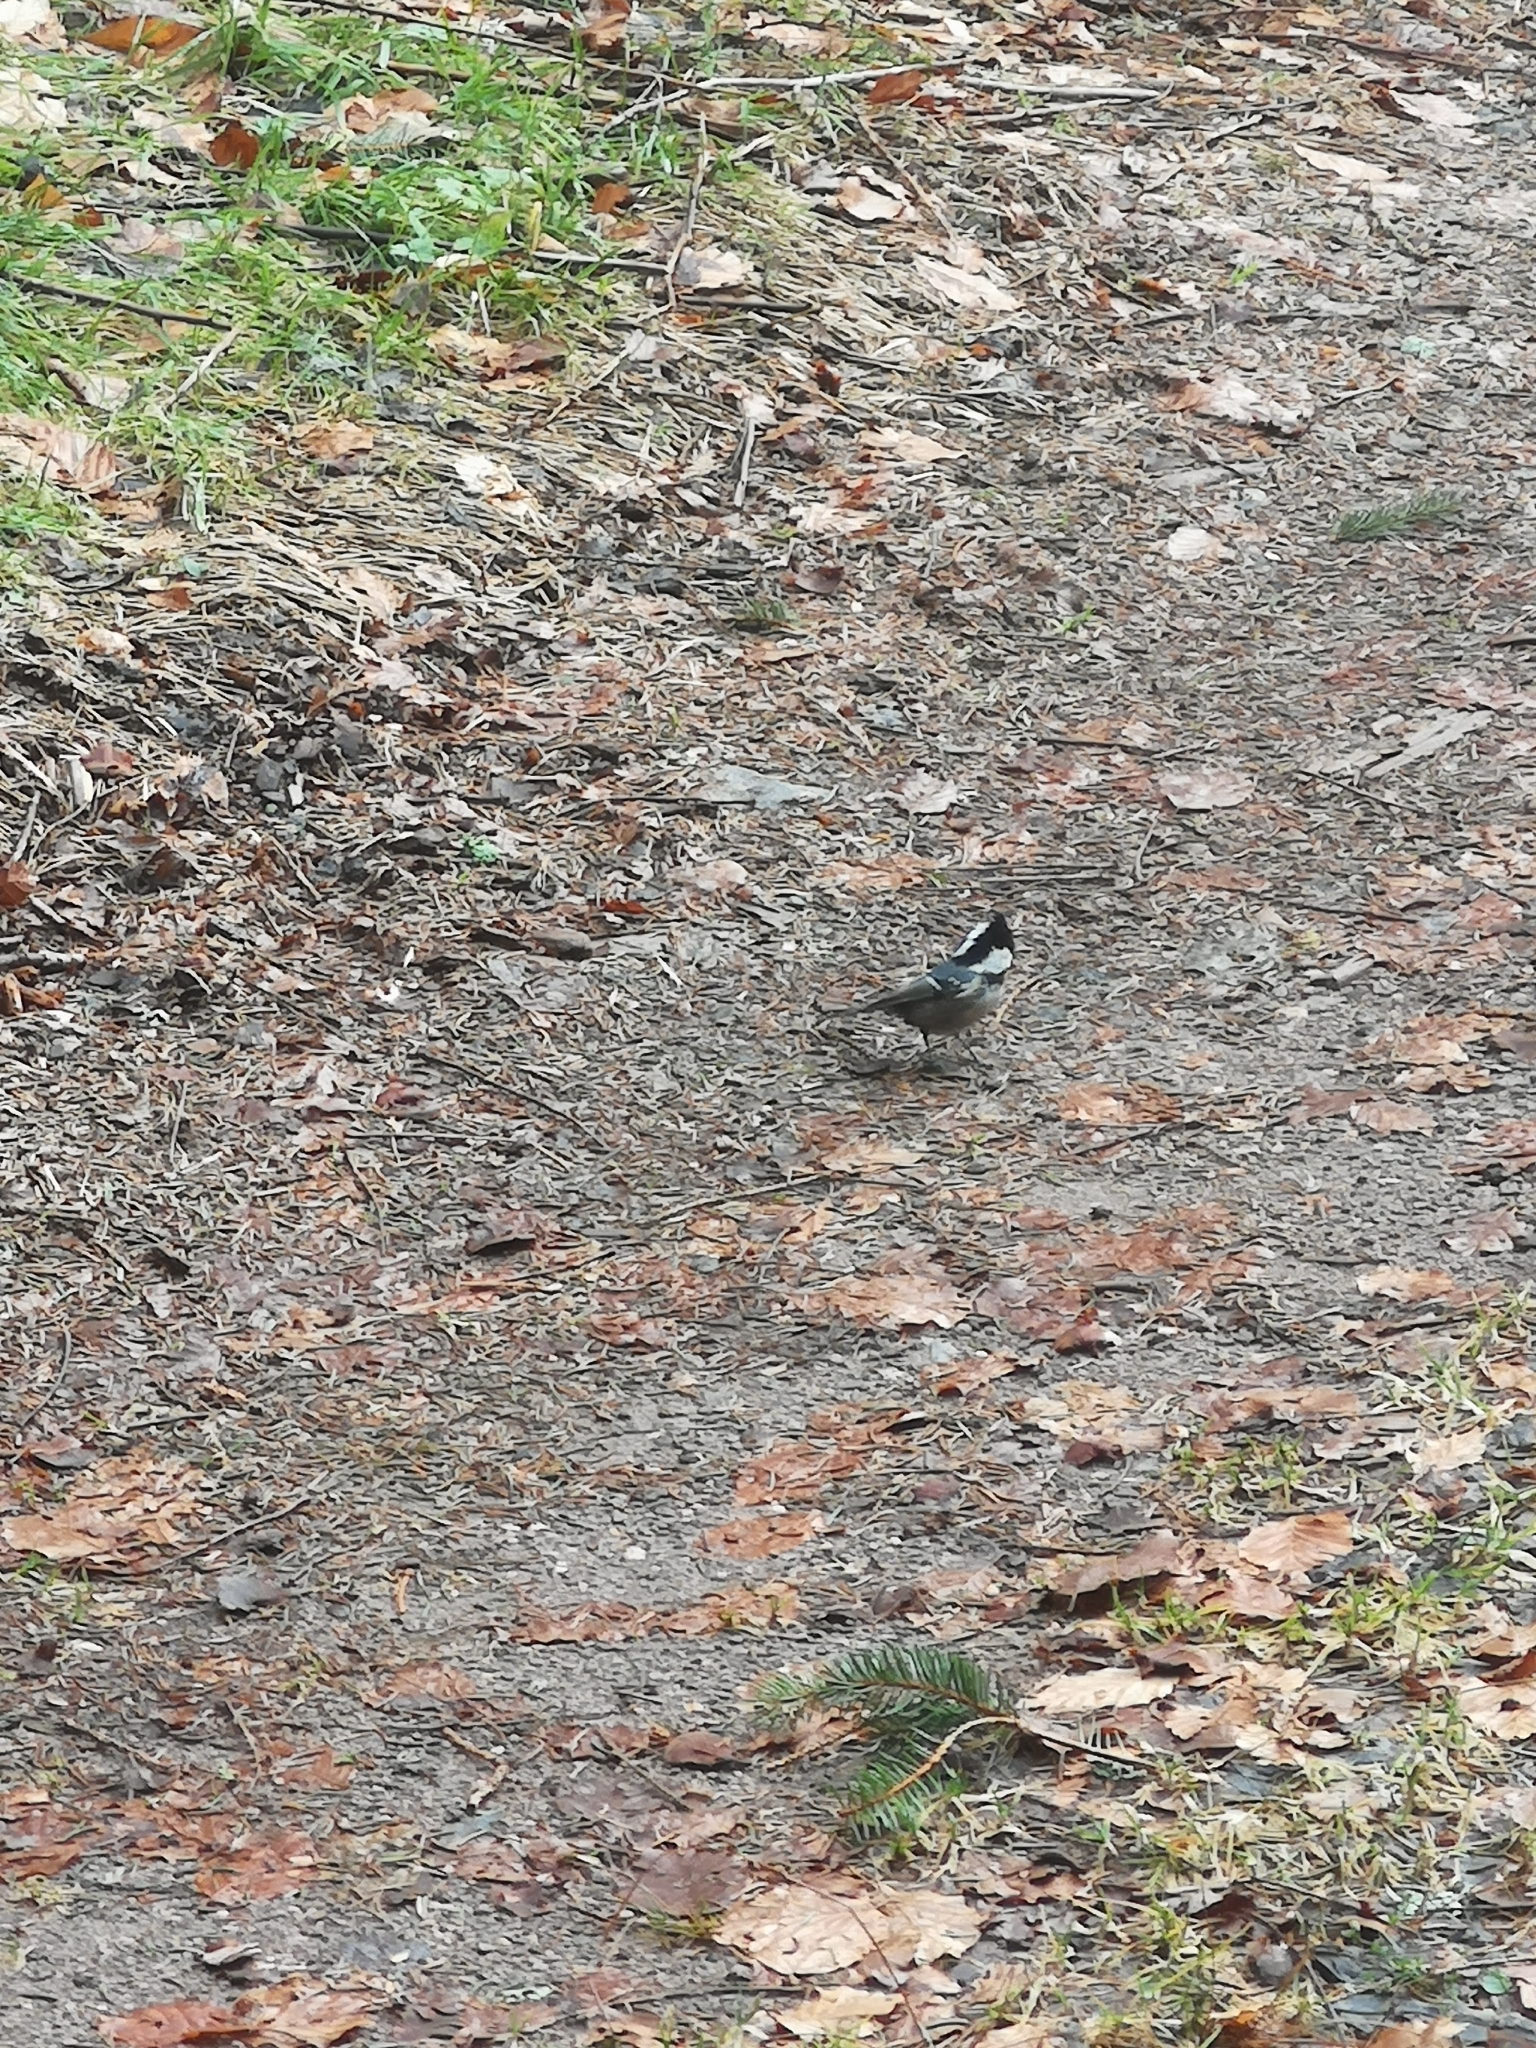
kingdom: Animalia
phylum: Chordata
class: Aves
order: Passeriformes
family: Paridae
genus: Periparus
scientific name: Periparus ater
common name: Coal tit
